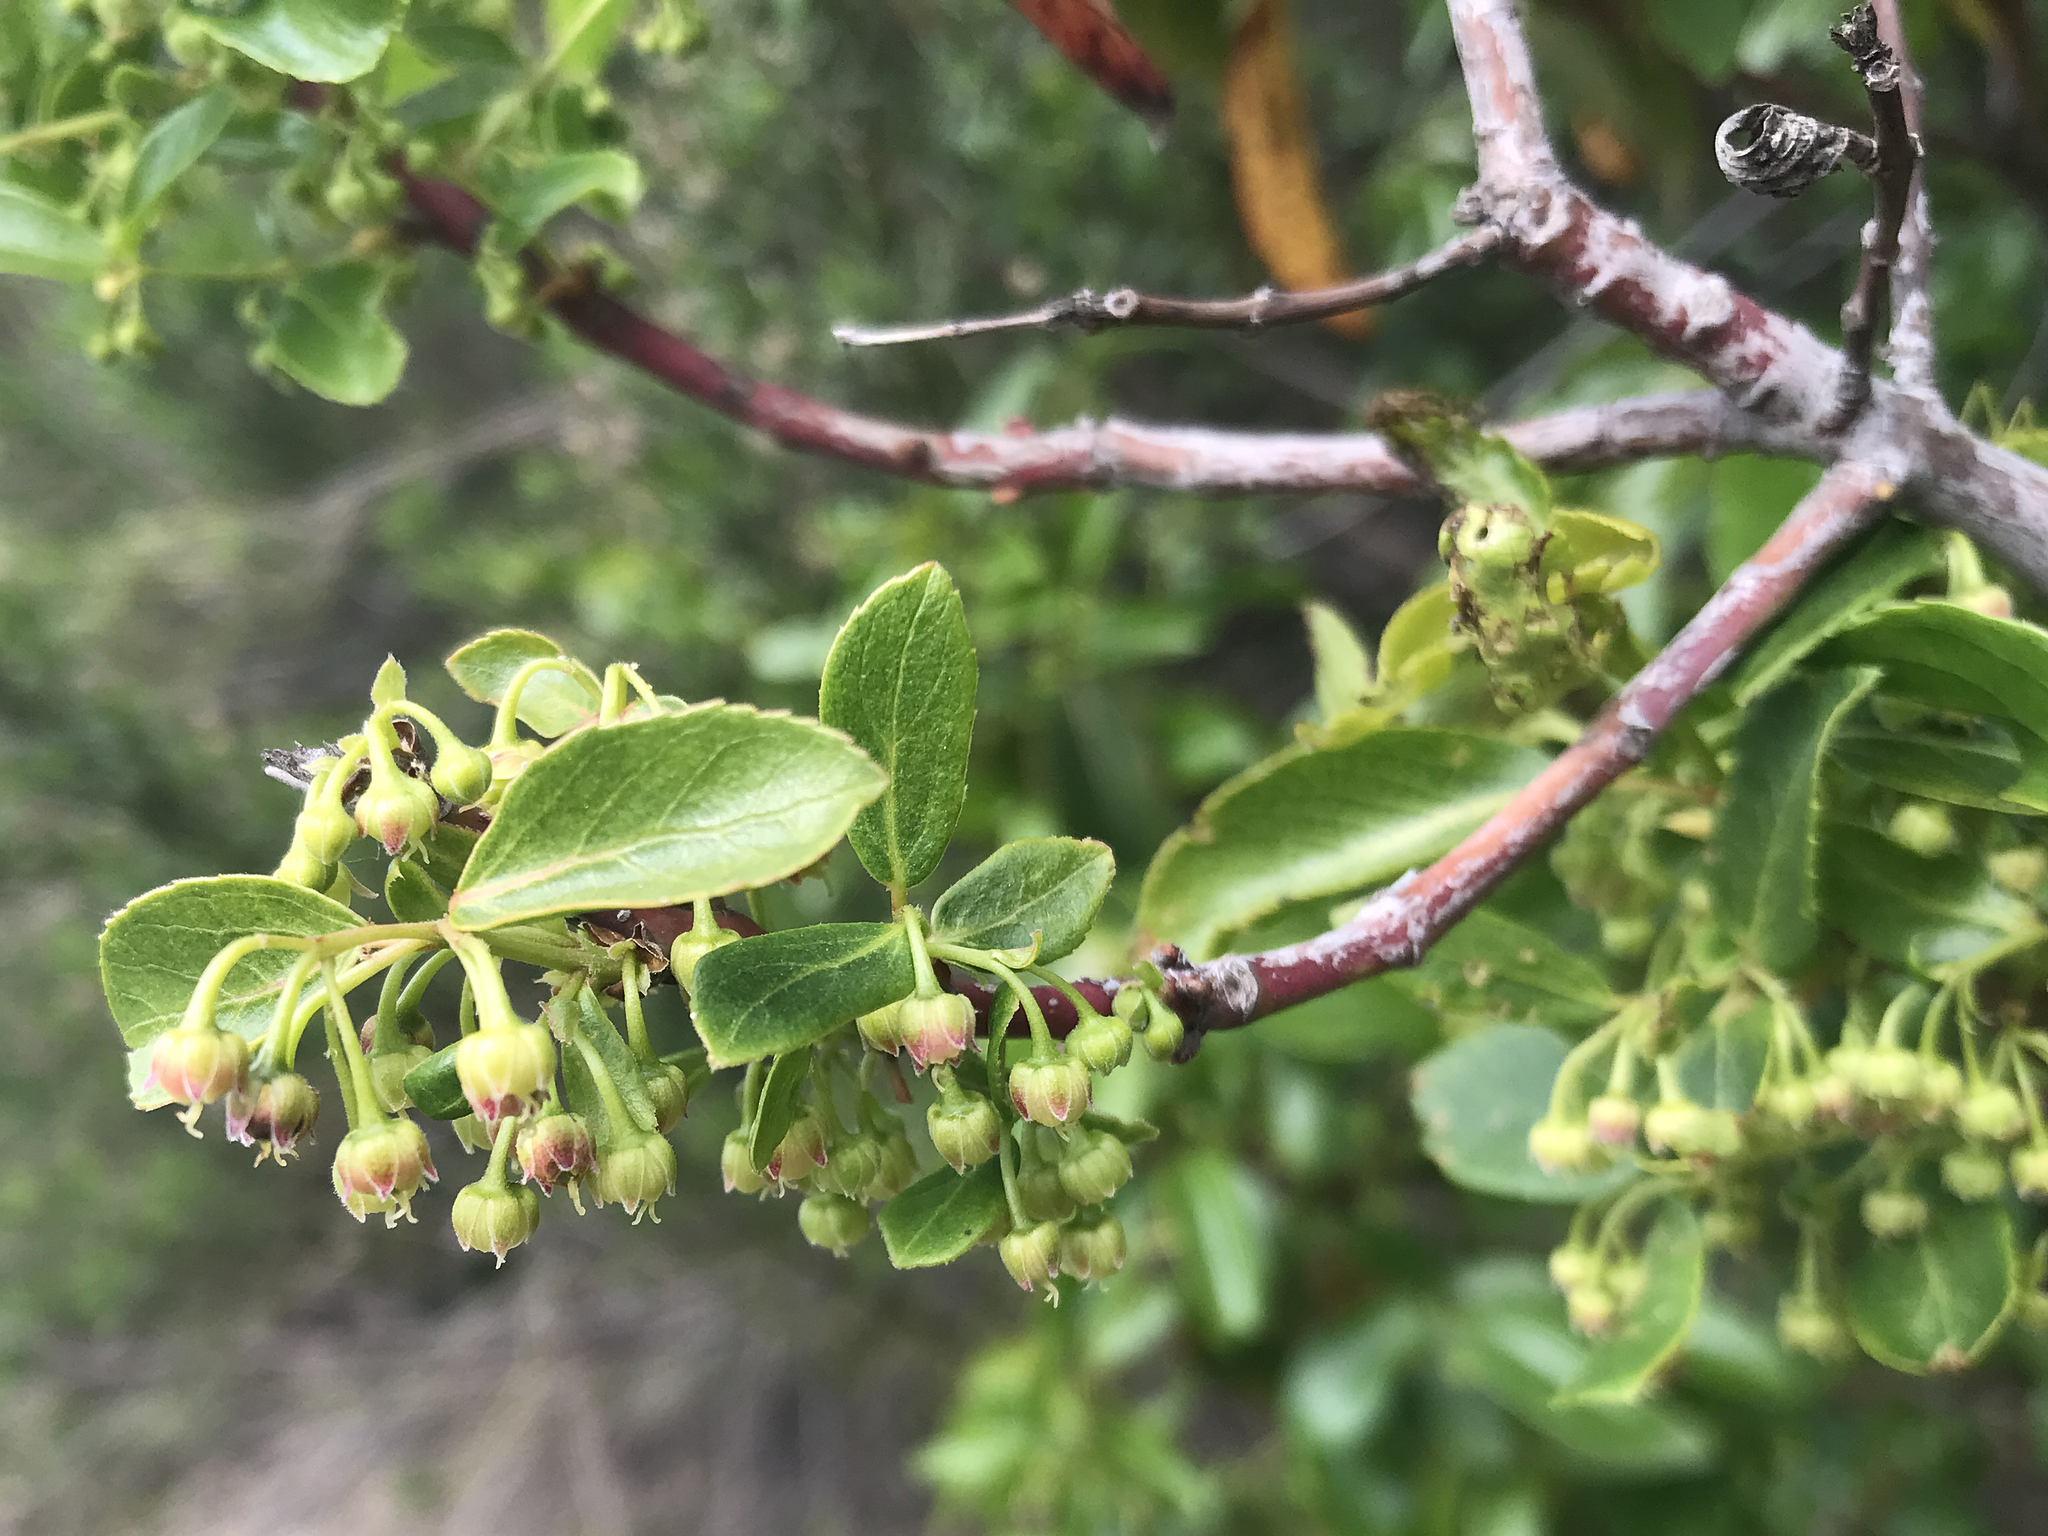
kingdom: Plantae
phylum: Tracheophyta
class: Magnoliopsida
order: Oxalidales
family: Elaeocarpaceae
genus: Aristotelia
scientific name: Aristotelia chilensis
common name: Maquei
